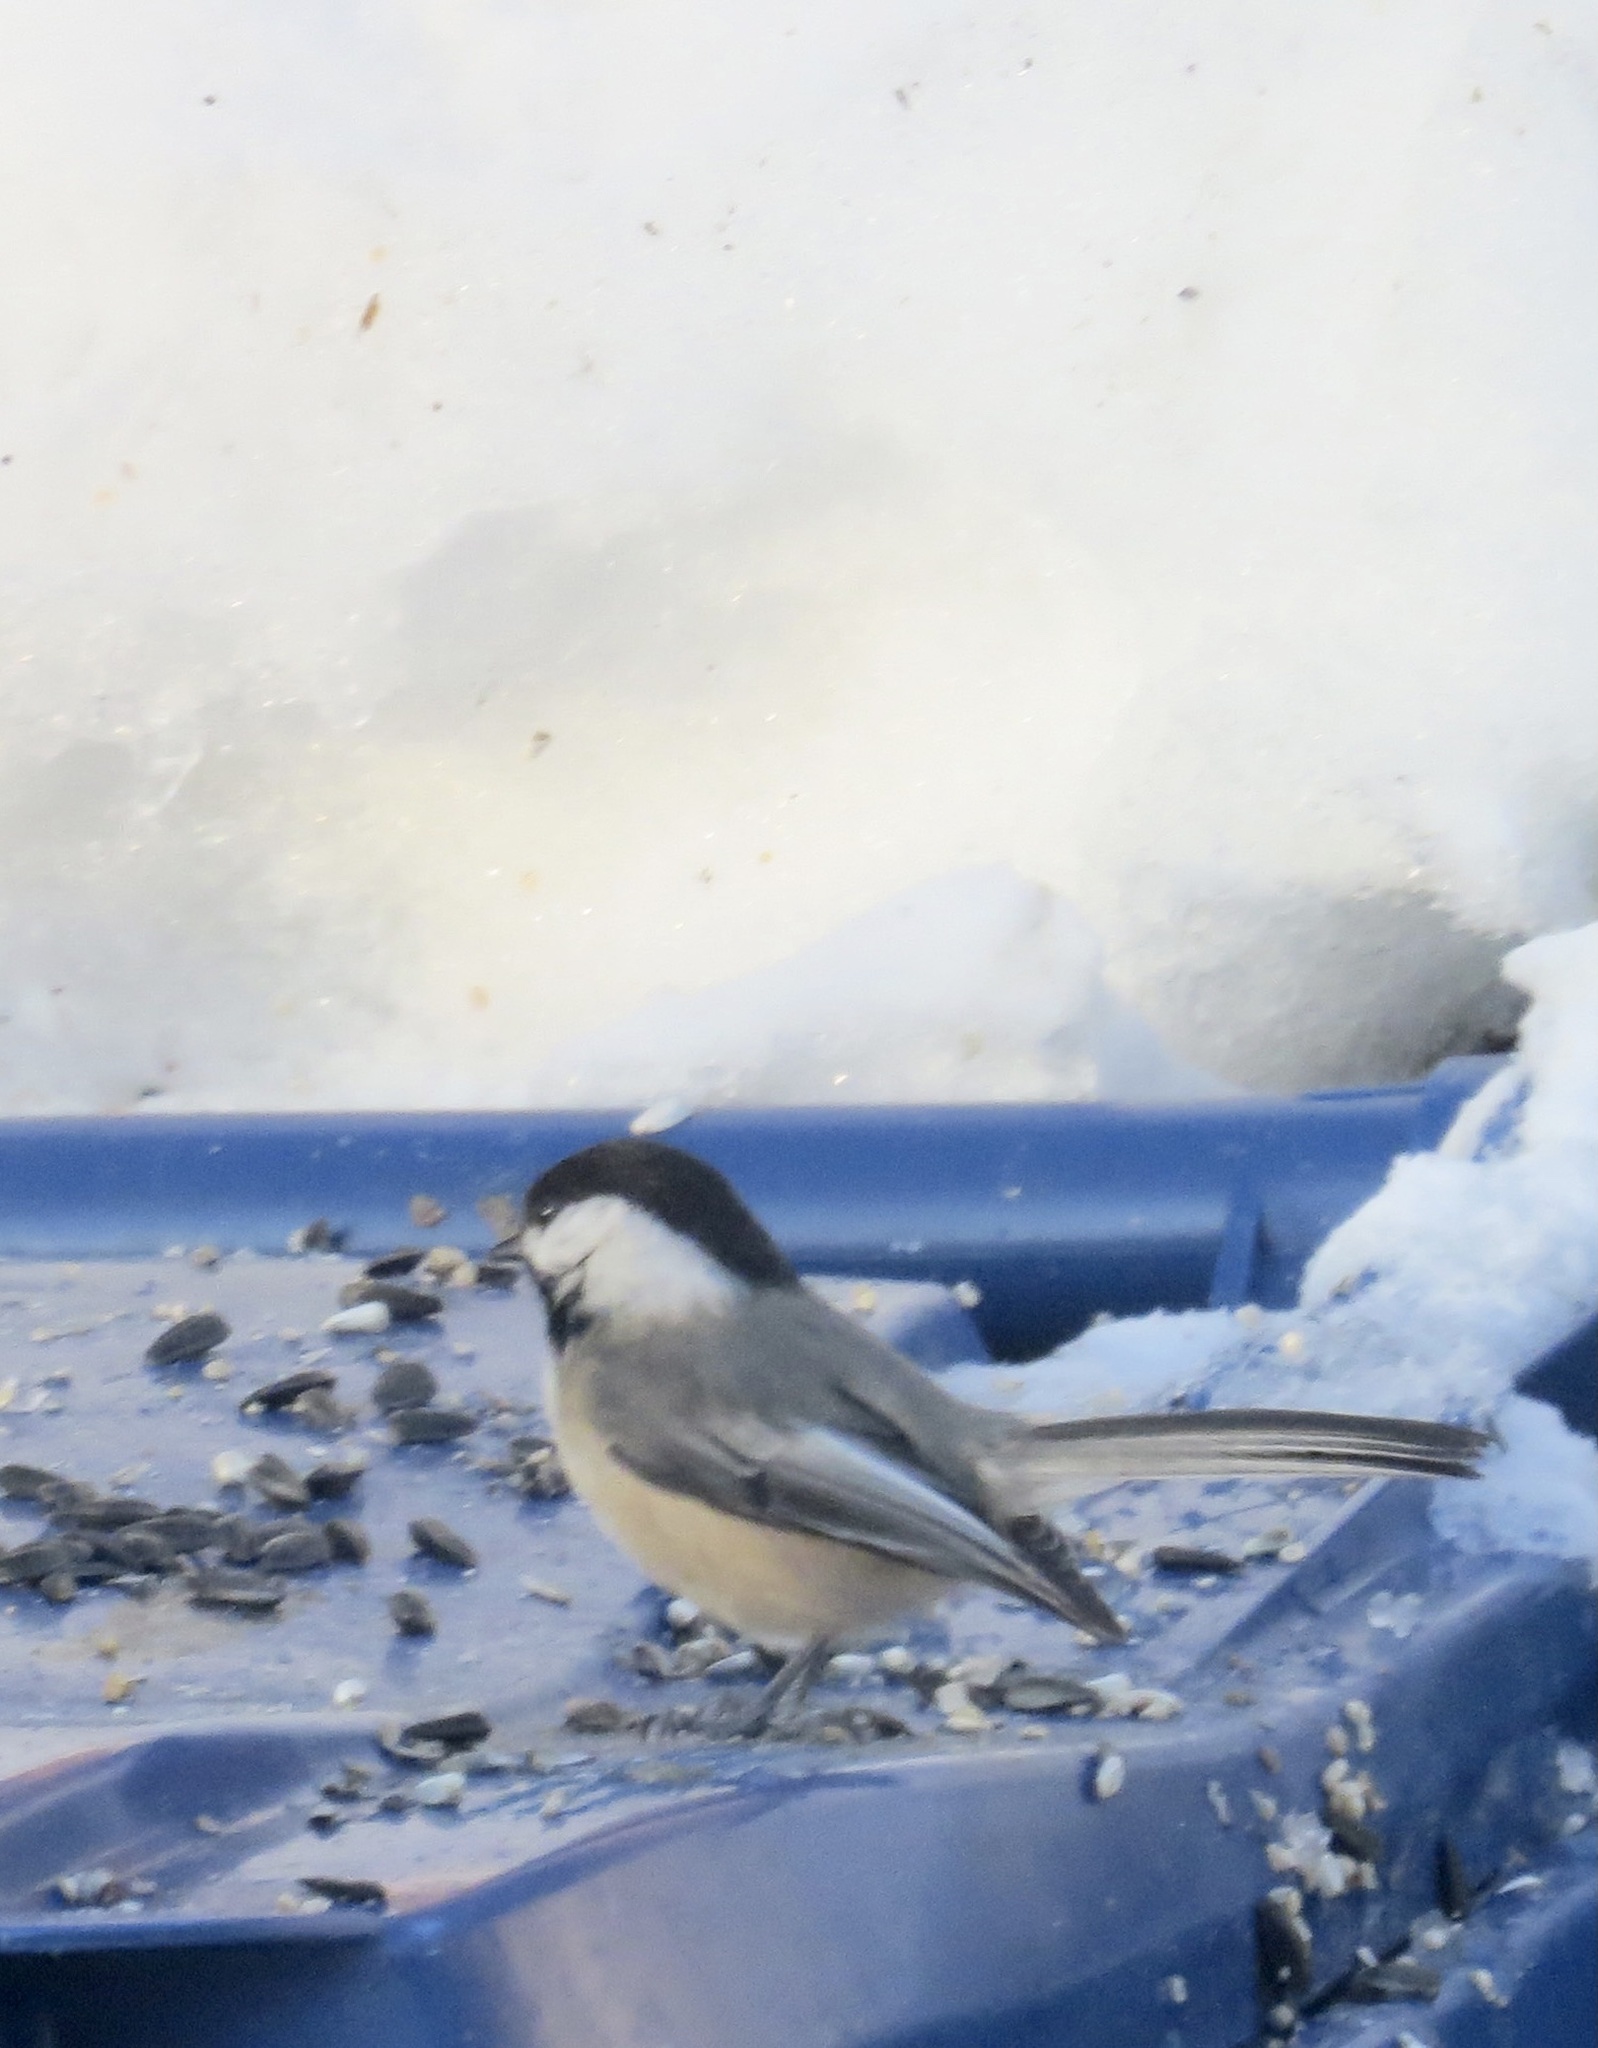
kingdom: Animalia
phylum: Chordata
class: Aves
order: Passeriformes
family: Paridae
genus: Poecile
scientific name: Poecile atricapillus
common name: Black-capped chickadee
